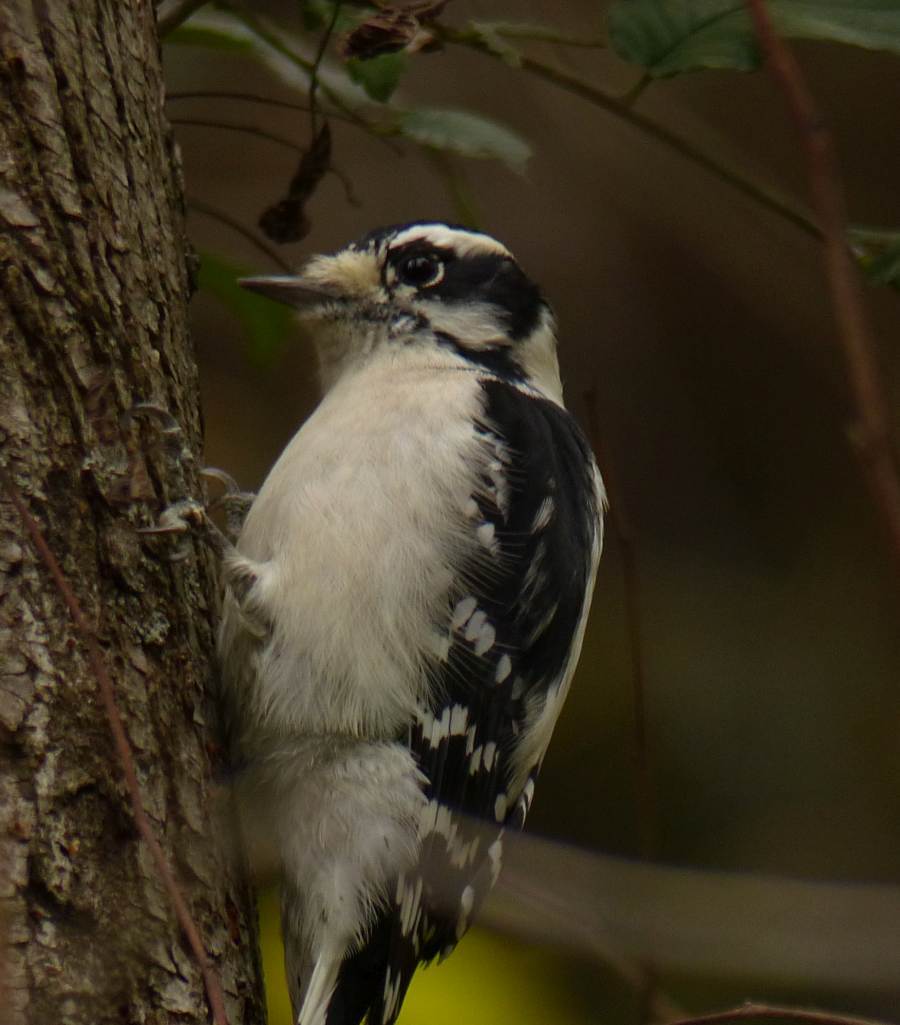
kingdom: Animalia
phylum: Chordata
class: Aves
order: Piciformes
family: Picidae
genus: Dryobates
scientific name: Dryobates pubescens
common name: Downy woodpecker
